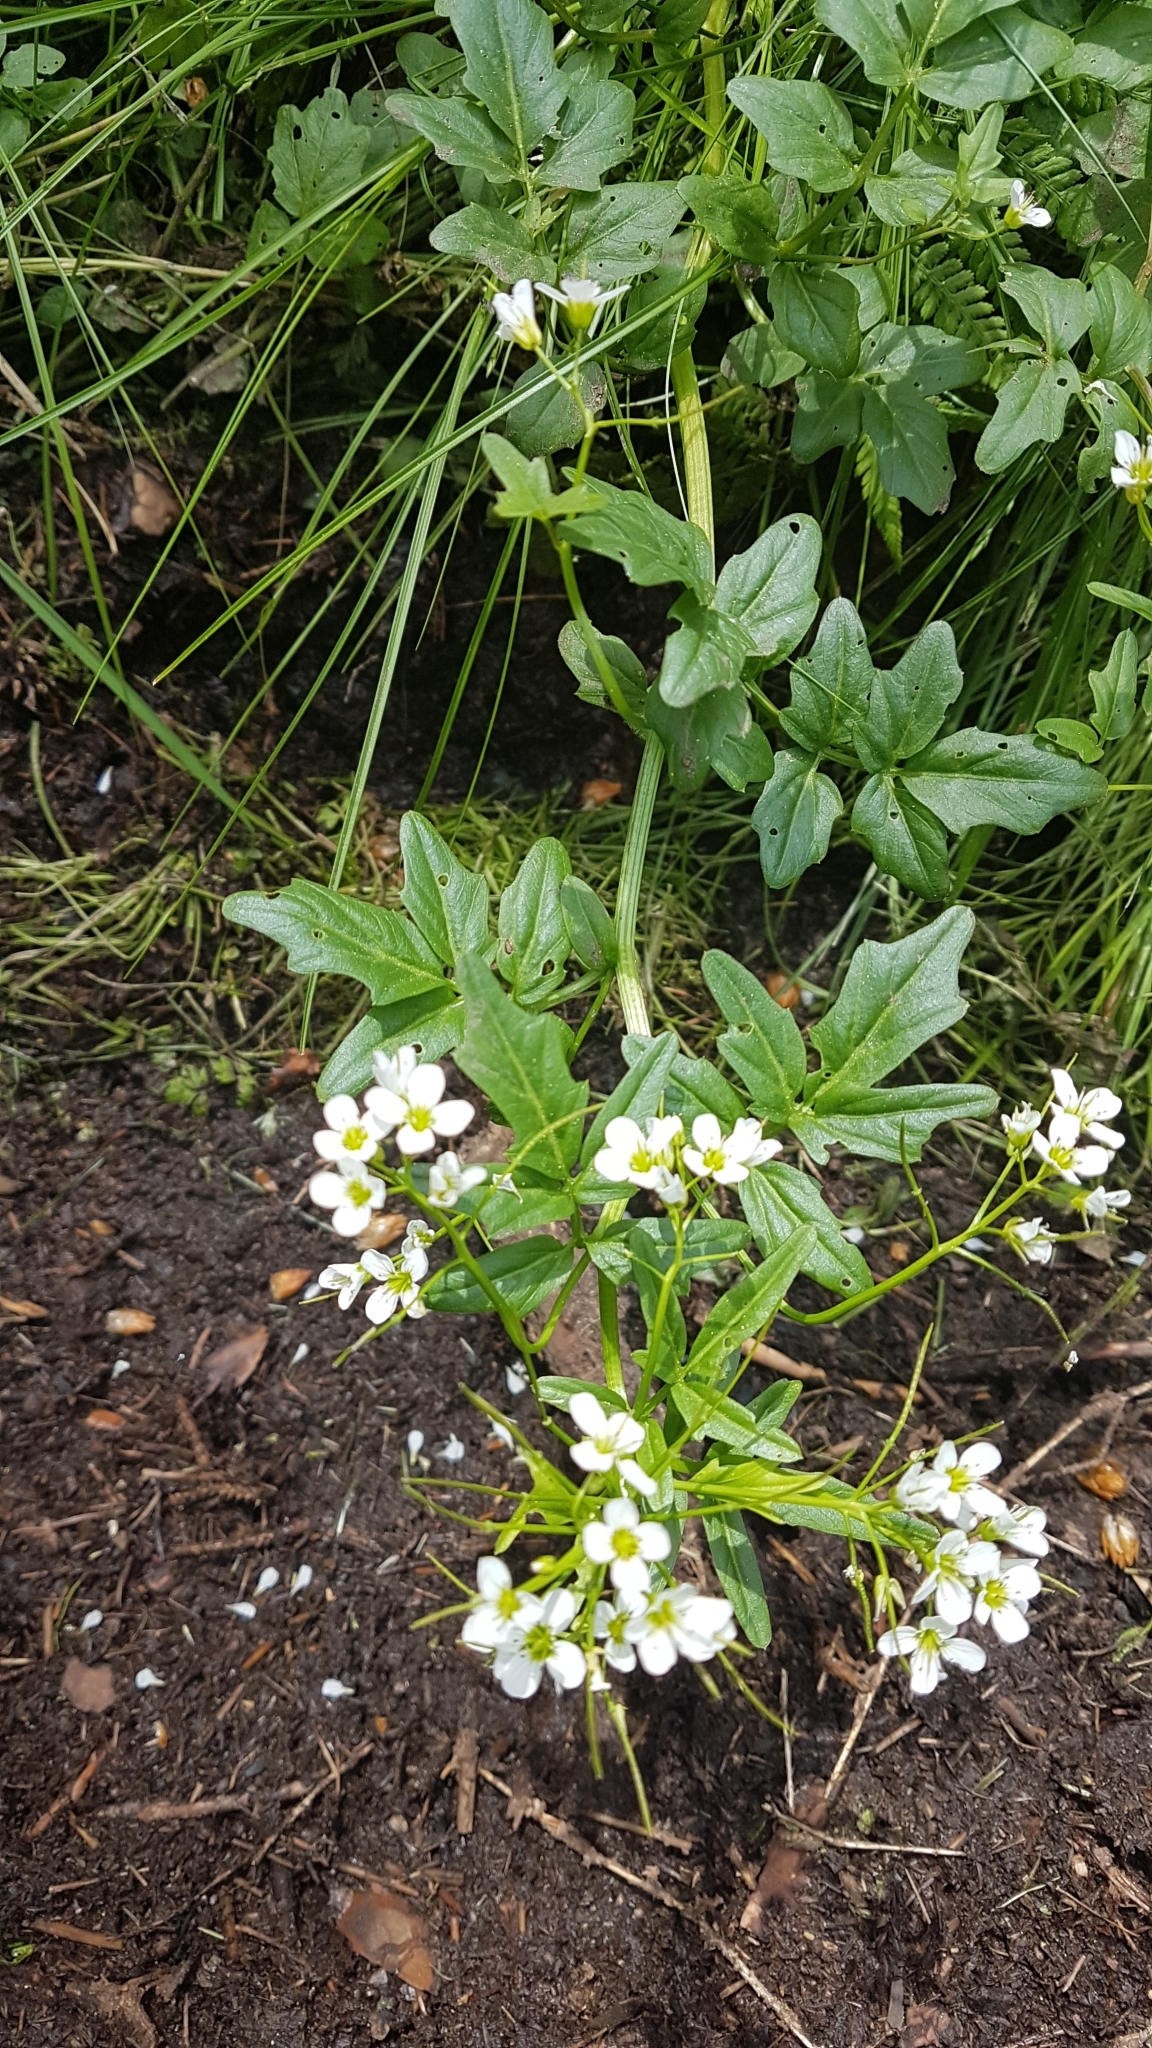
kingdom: Plantae
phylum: Tracheophyta
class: Magnoliopsida
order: Brassicales
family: Brassicaceae
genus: Nasturtium
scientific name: Nasturtium officinale
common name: Watercress
